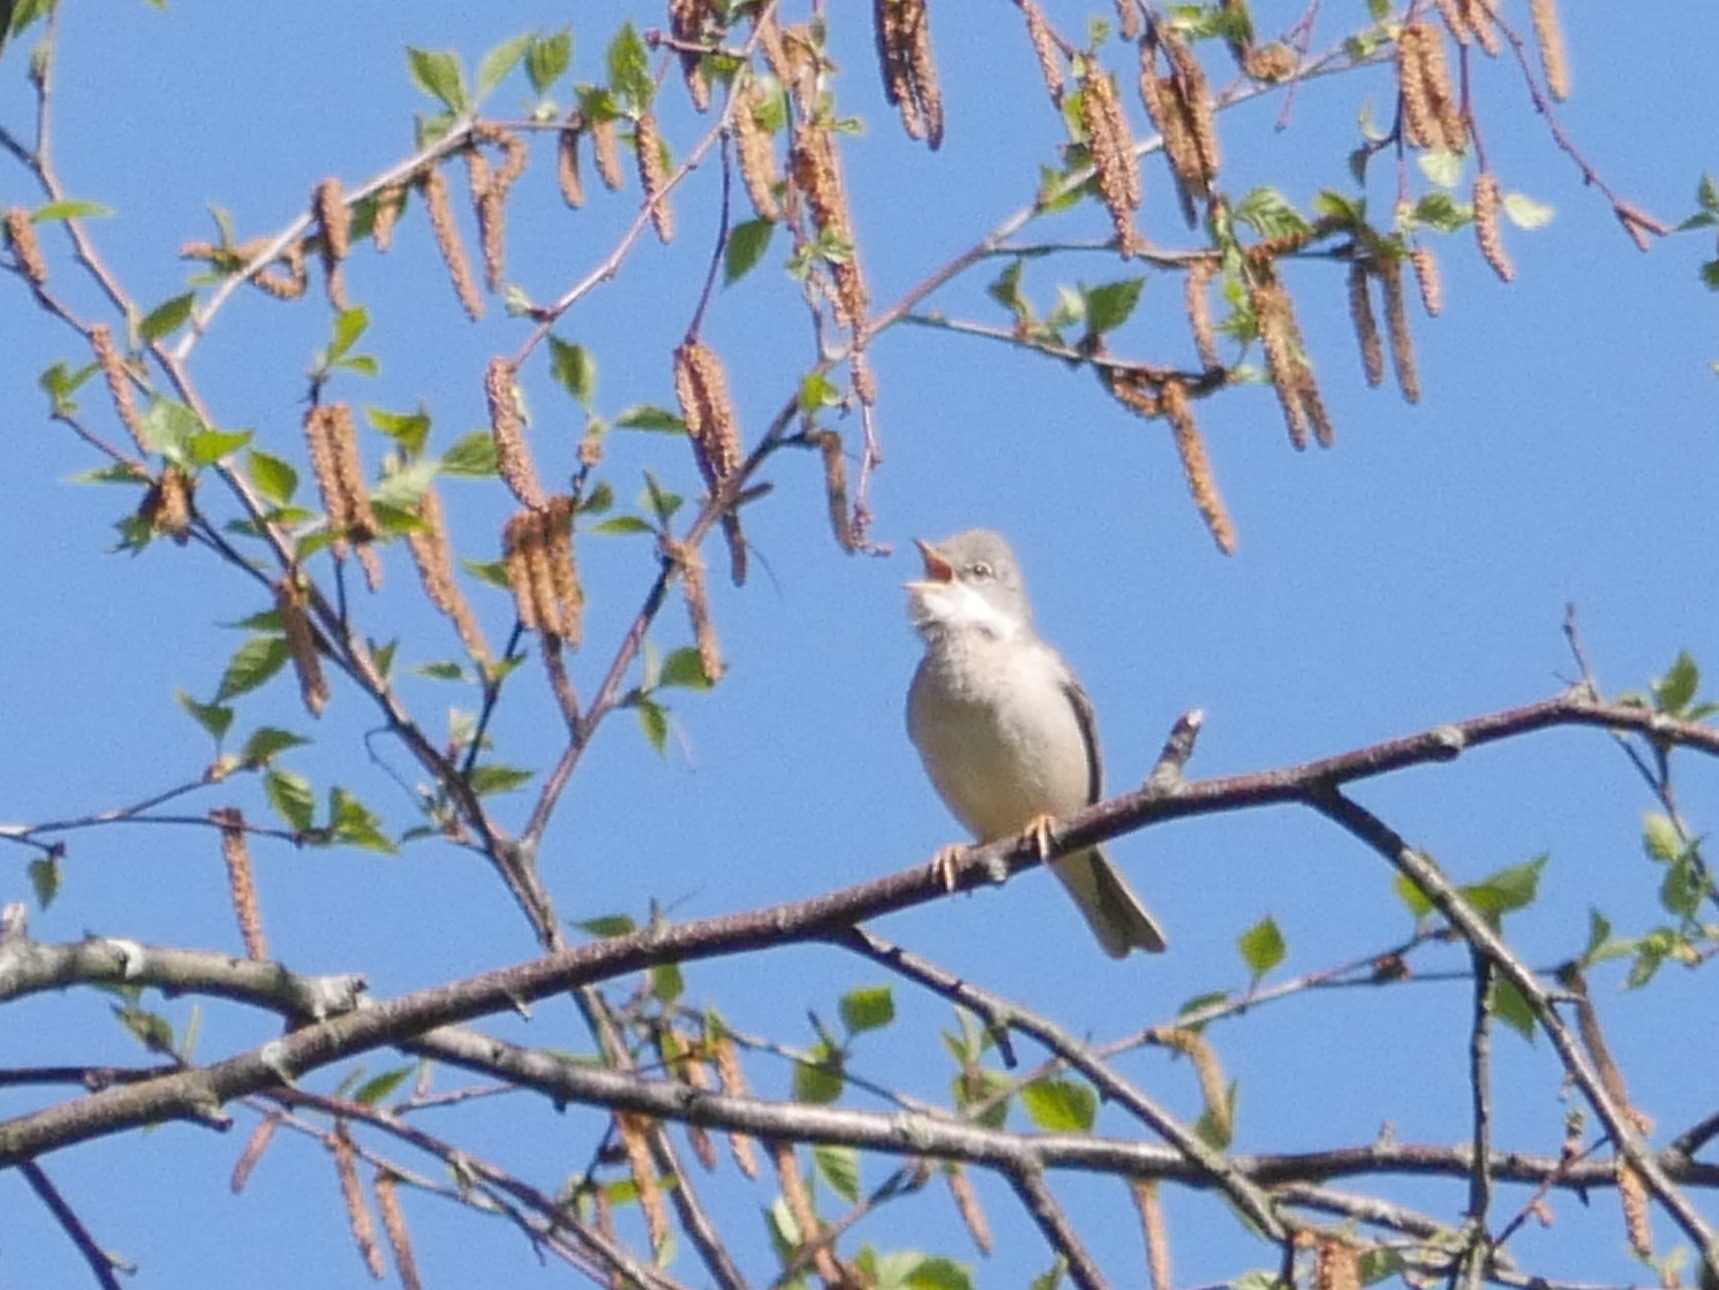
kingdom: Animalia
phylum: Chordata
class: Aves
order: Passeriformes
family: Sylviidae
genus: Sylvia
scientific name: Sylvia communis
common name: Common whitethroat
